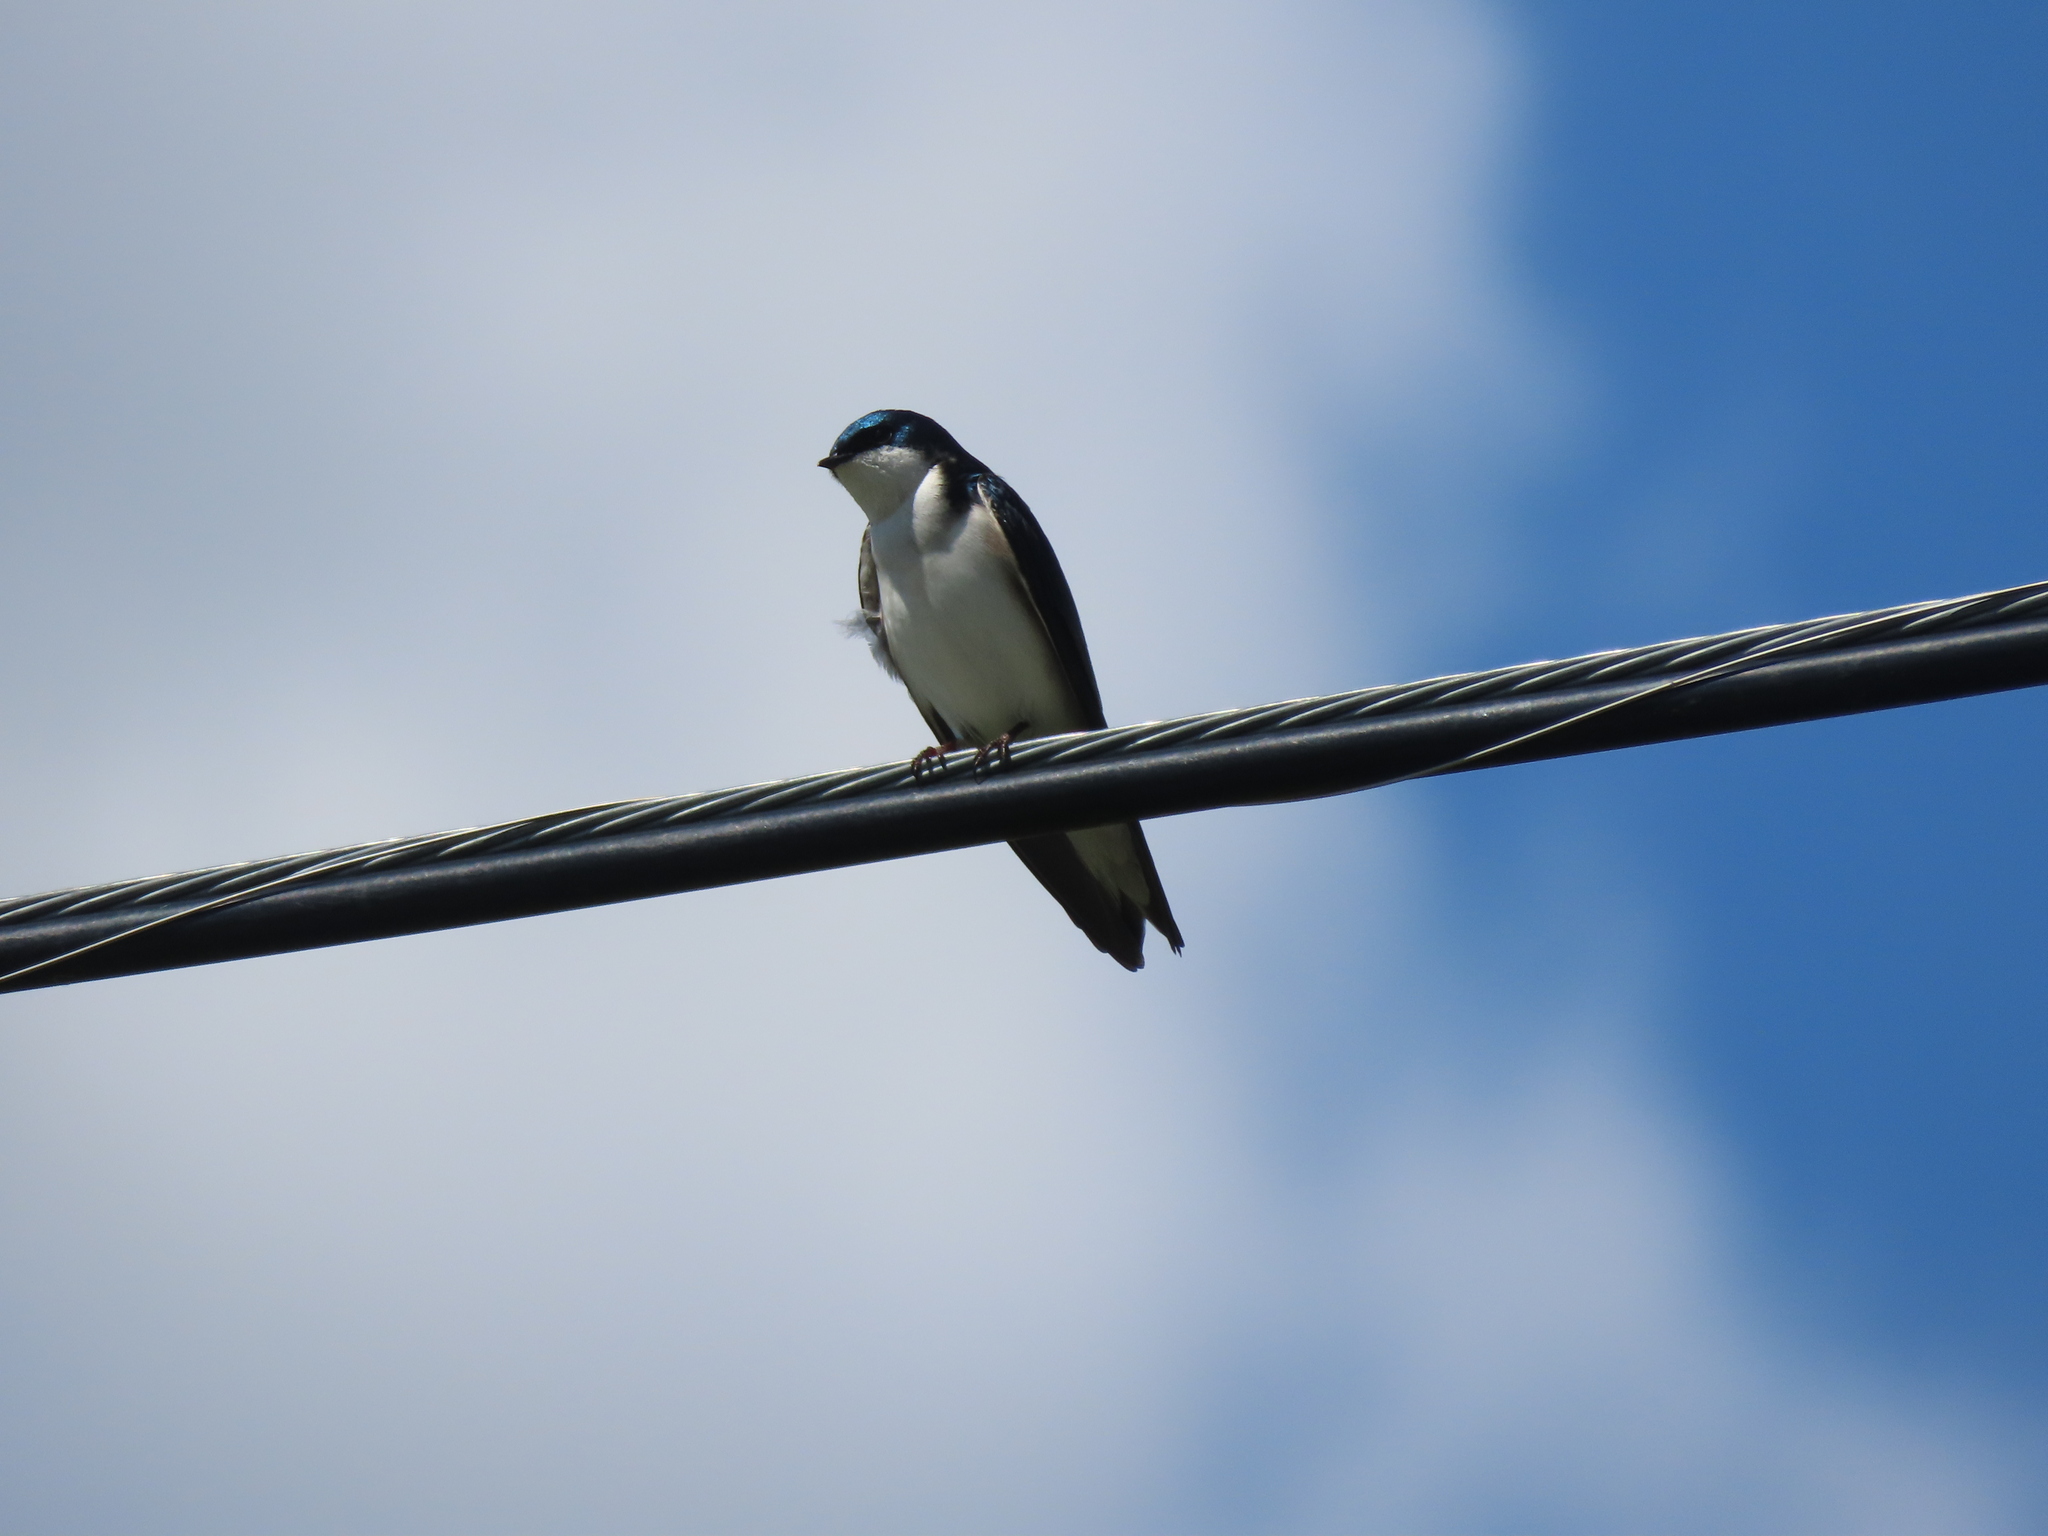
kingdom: Animalia
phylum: Chordata
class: Aves
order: Passeriformes
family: Hirundinidae
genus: Tachycineta
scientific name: Tachycineta bicolor
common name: Tree swallow
